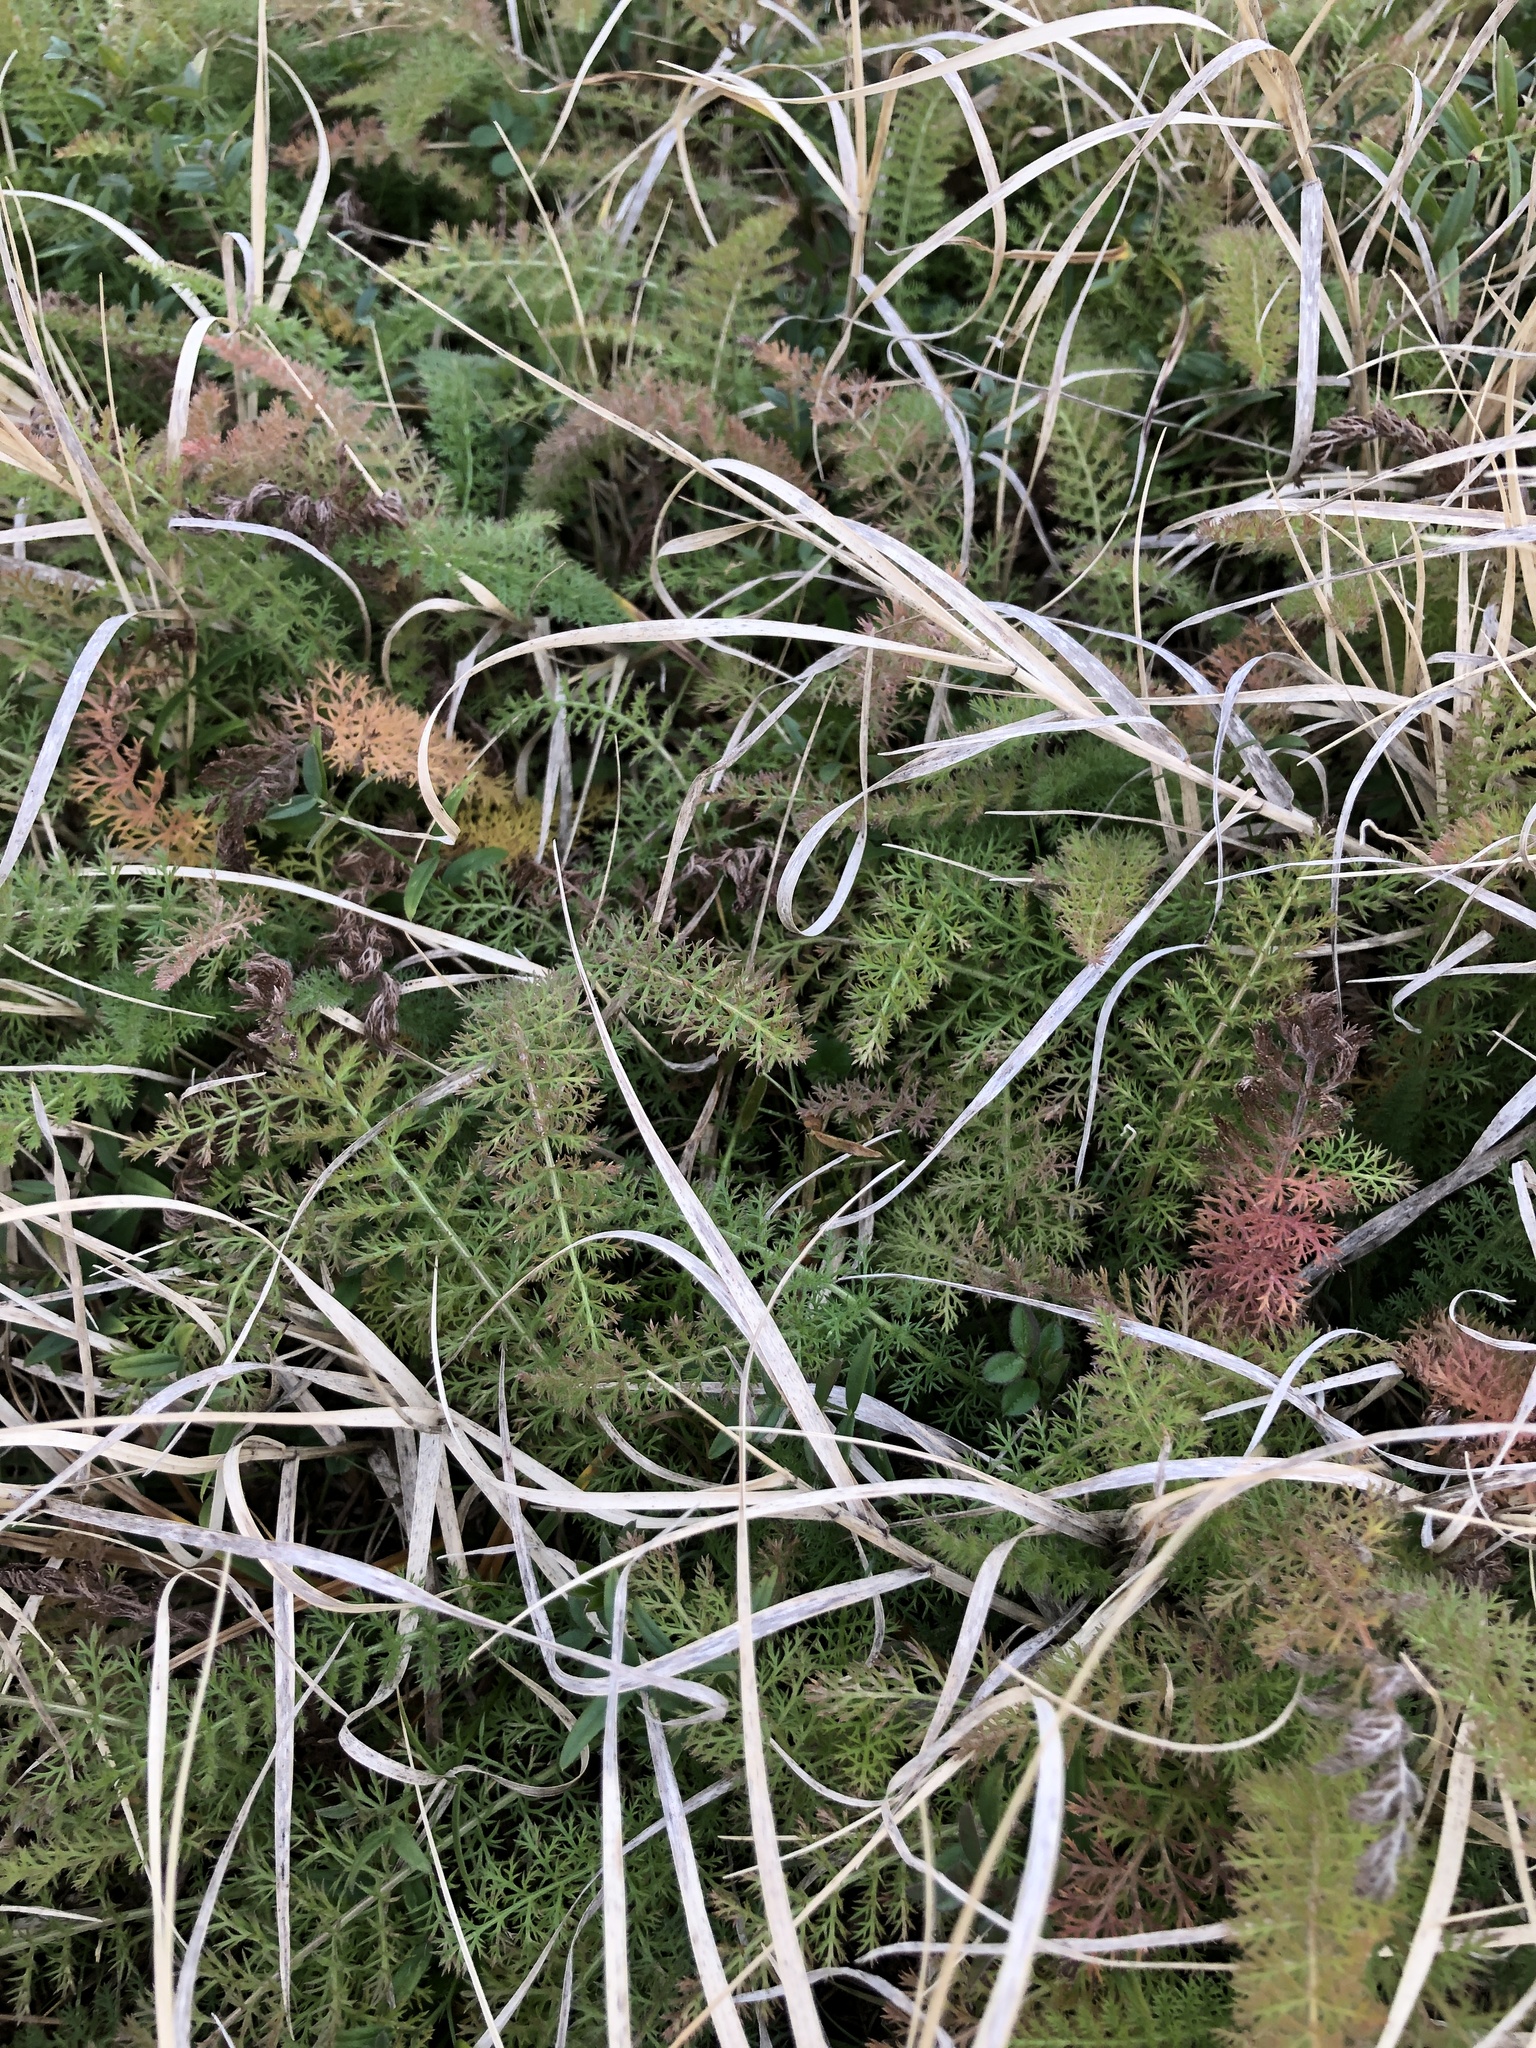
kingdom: Plantae
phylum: Tracheophyta
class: Magnoliopsida
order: Asterales
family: Asteraceae
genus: Achillea
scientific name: Achillea millefolium
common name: Yarrow
